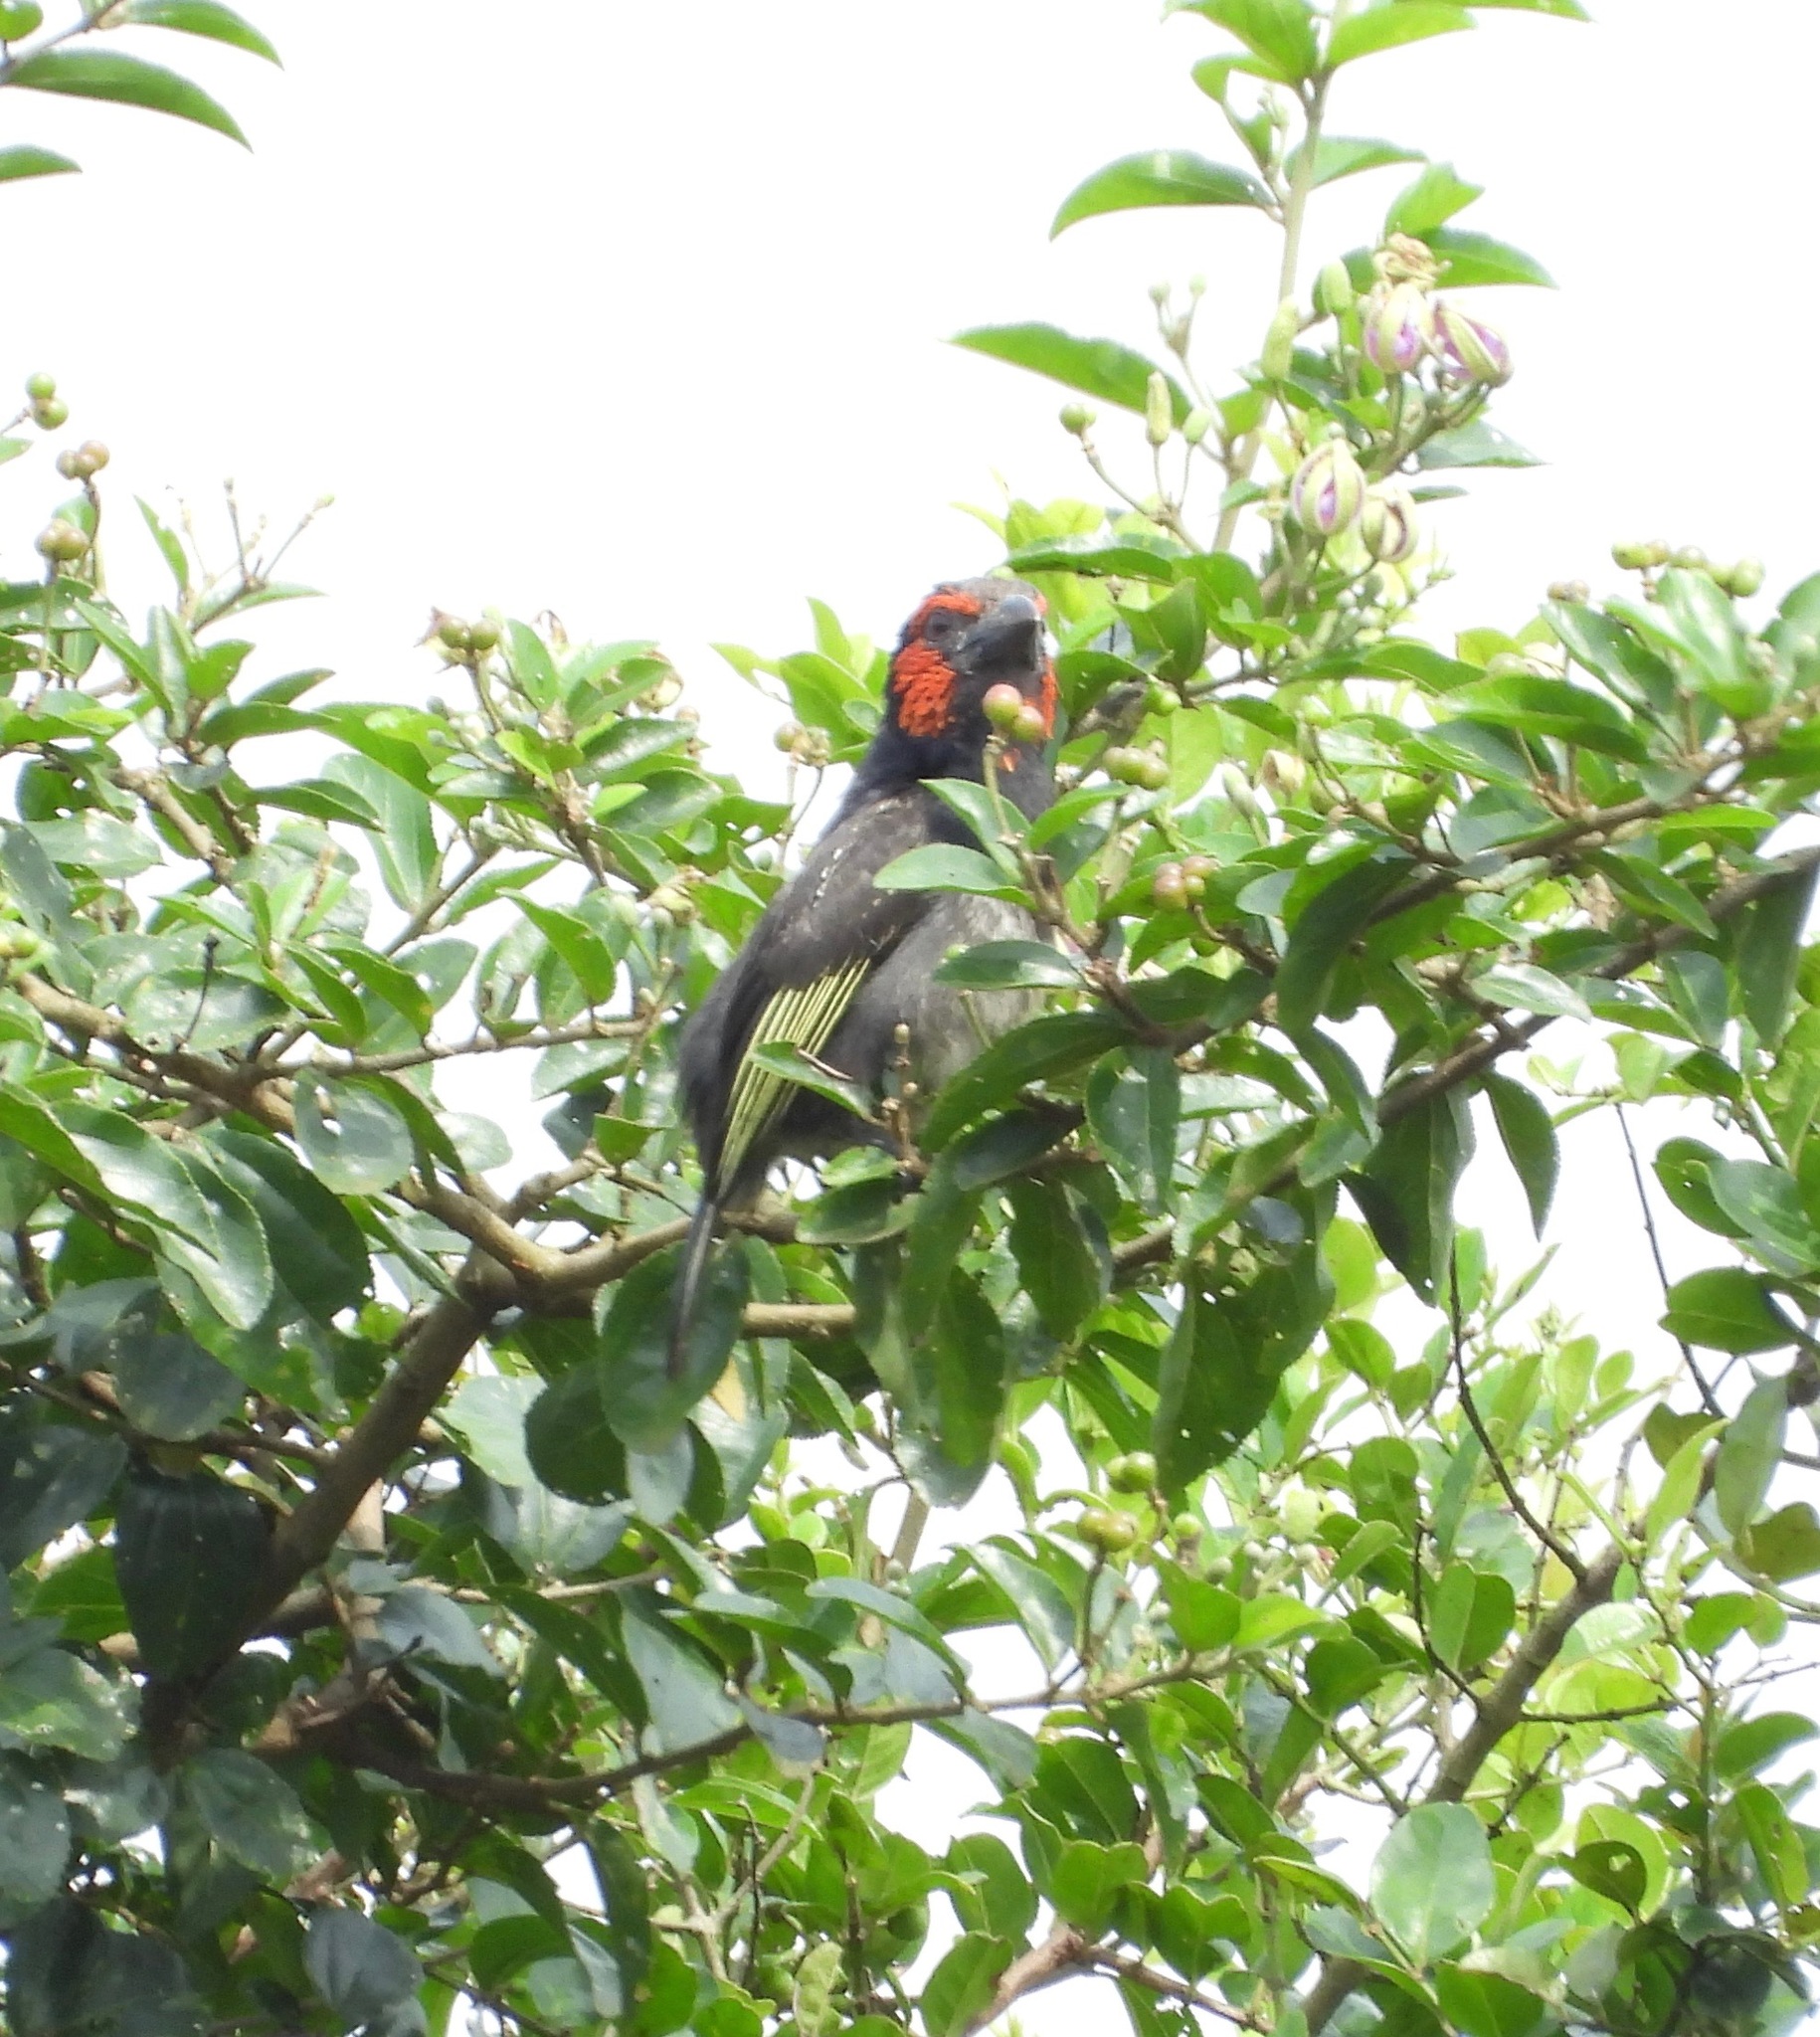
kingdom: Animalia
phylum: Chordata
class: Aves
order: Piciformes
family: Lybiidae
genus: Lybius
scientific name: Lybius rubrifacies
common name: Red-faced barbet
